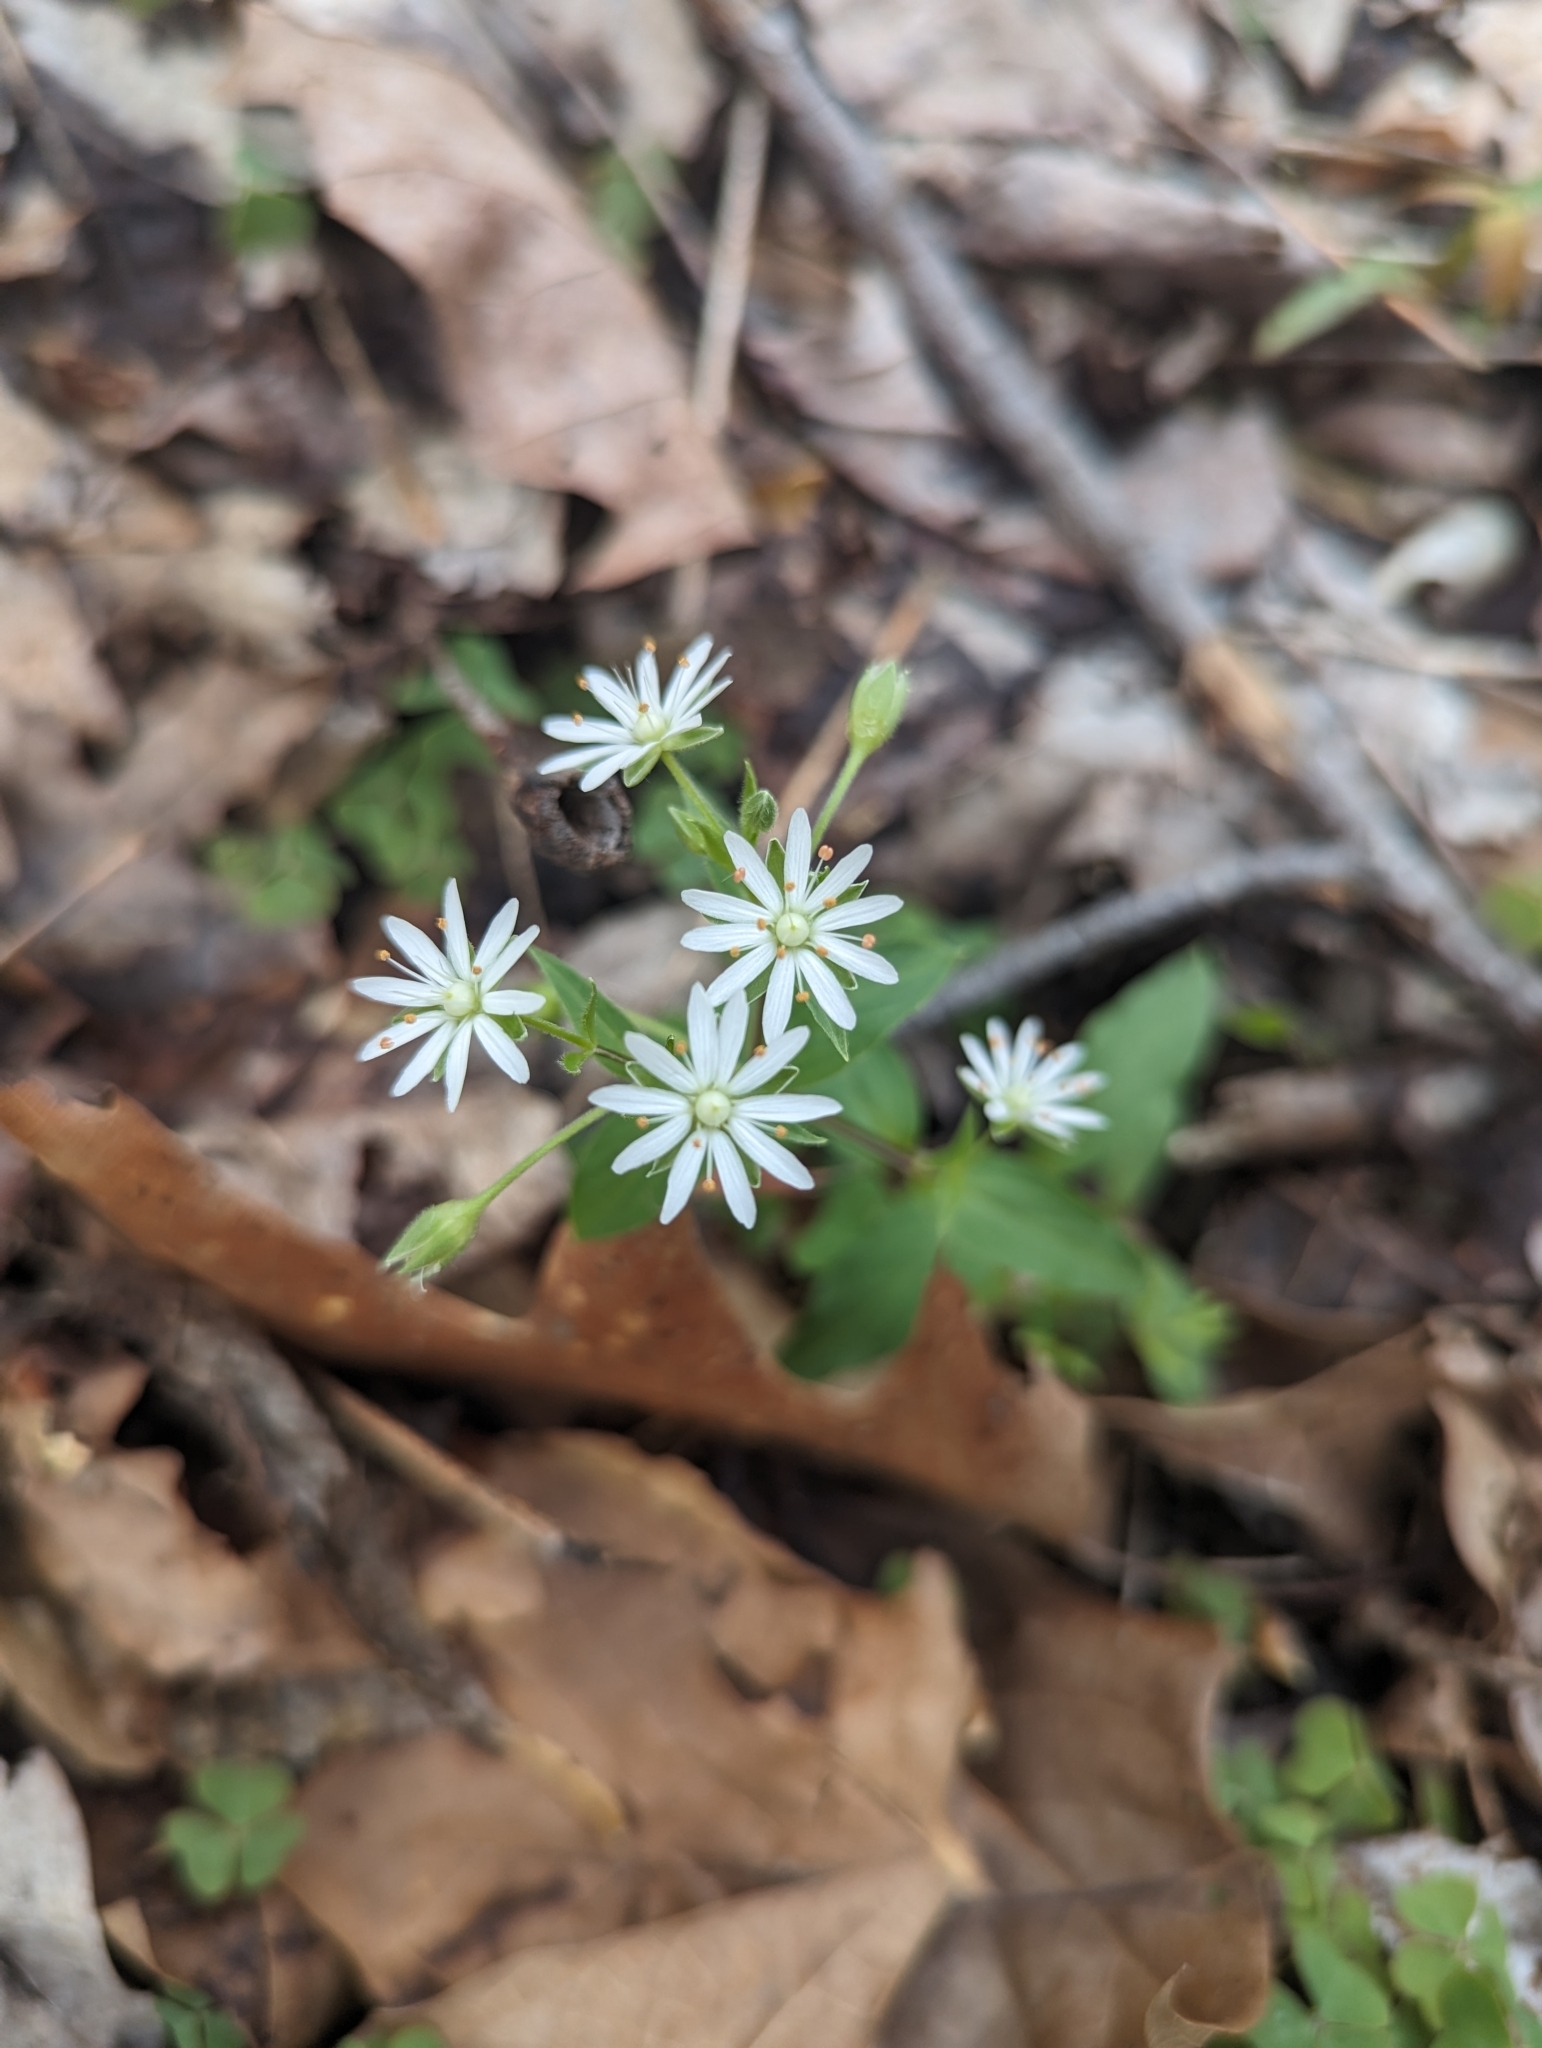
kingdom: Plantae
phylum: Tracheophyta
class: Magnoliopsida
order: Caryophyllales
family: Caryophyllaceae
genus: Stellaria
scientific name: Stellaria pubera
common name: Star chickweed
